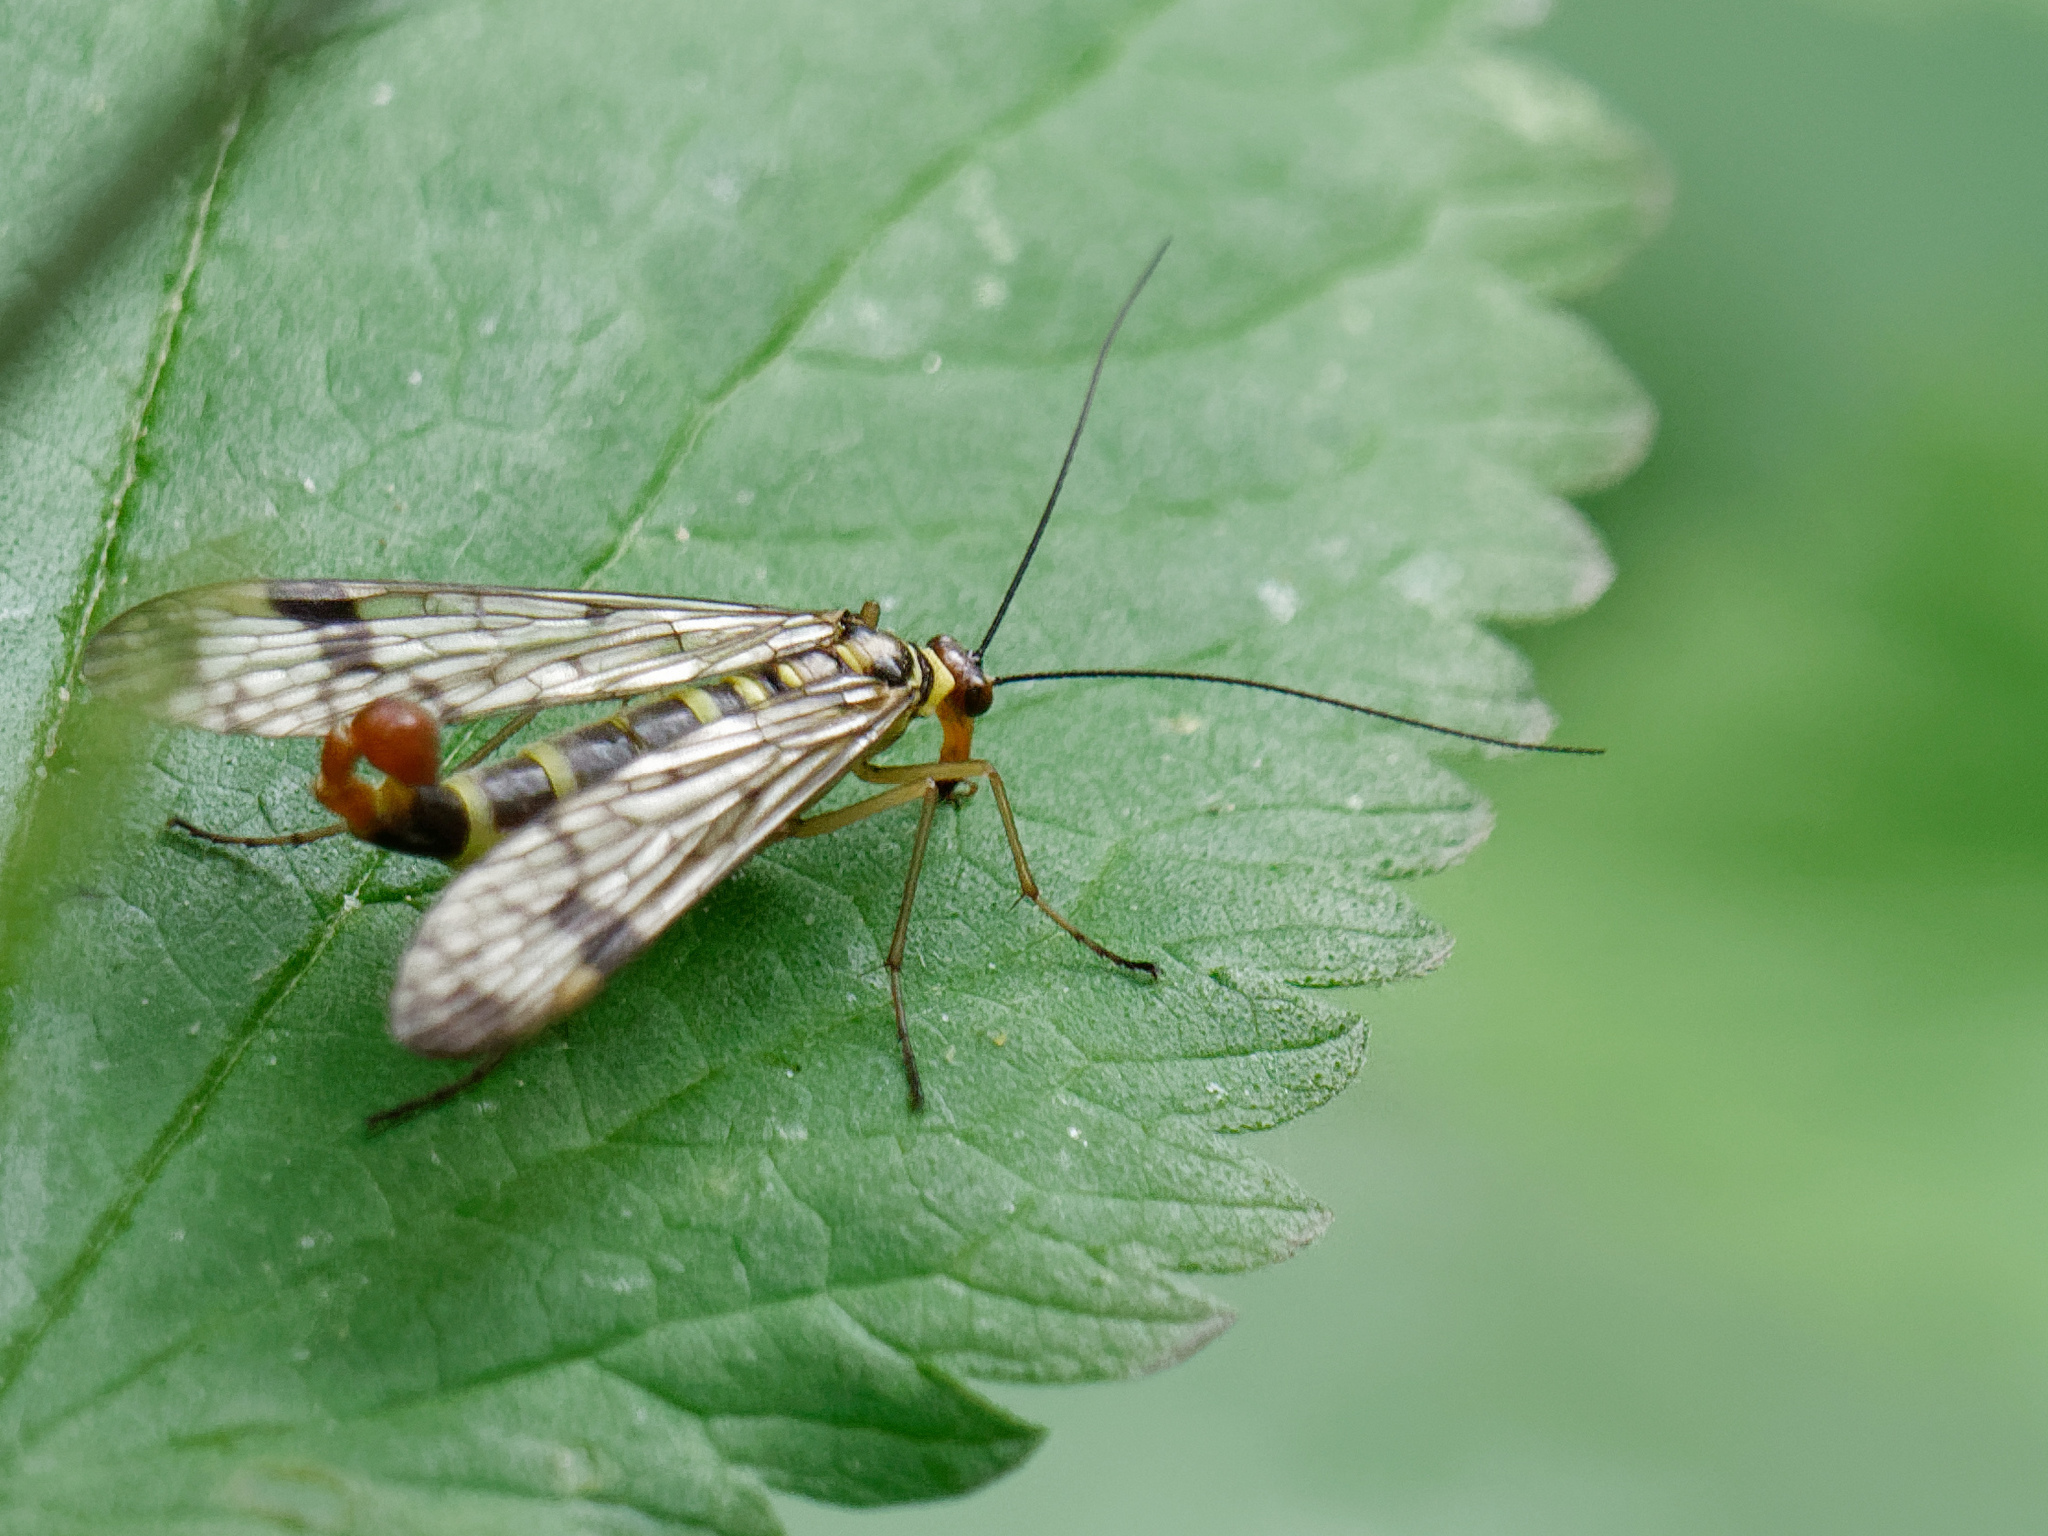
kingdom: Animalia
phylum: Arthropoda
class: Insecta
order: Mecoptera
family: Panorpidae
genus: Panorpa
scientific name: Panorpa communis
